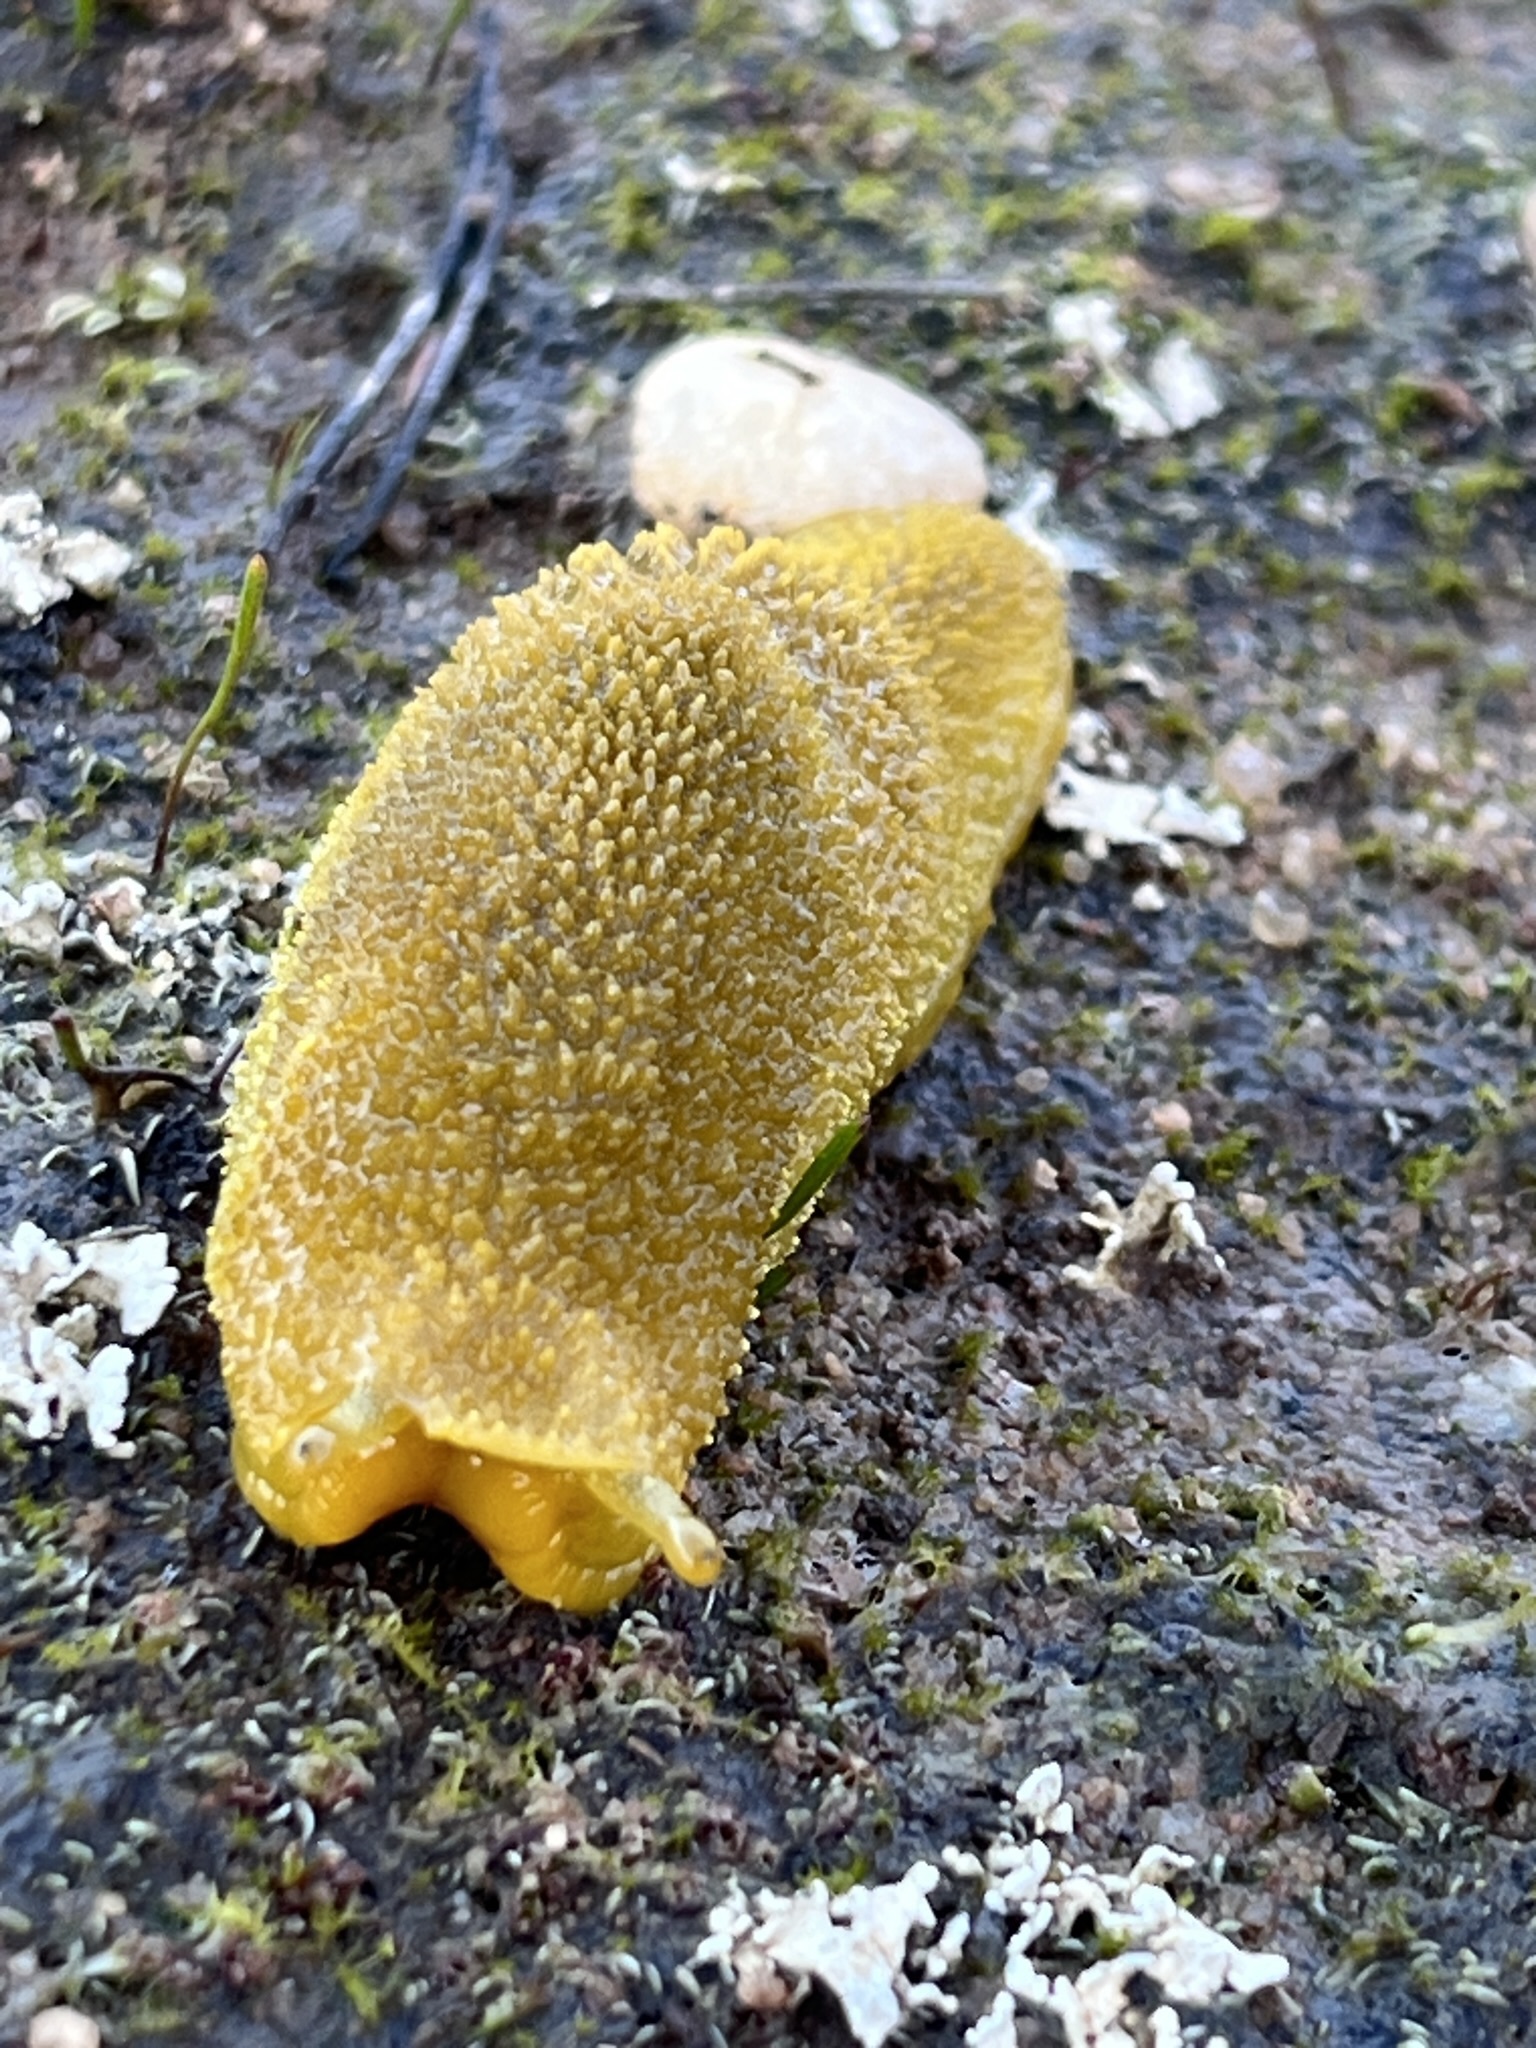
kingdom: Animalia
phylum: Mollusca
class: Gastropoda
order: Stylommatophora
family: Oopeltidae
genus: Oopelta
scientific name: Oopelta granulosa
